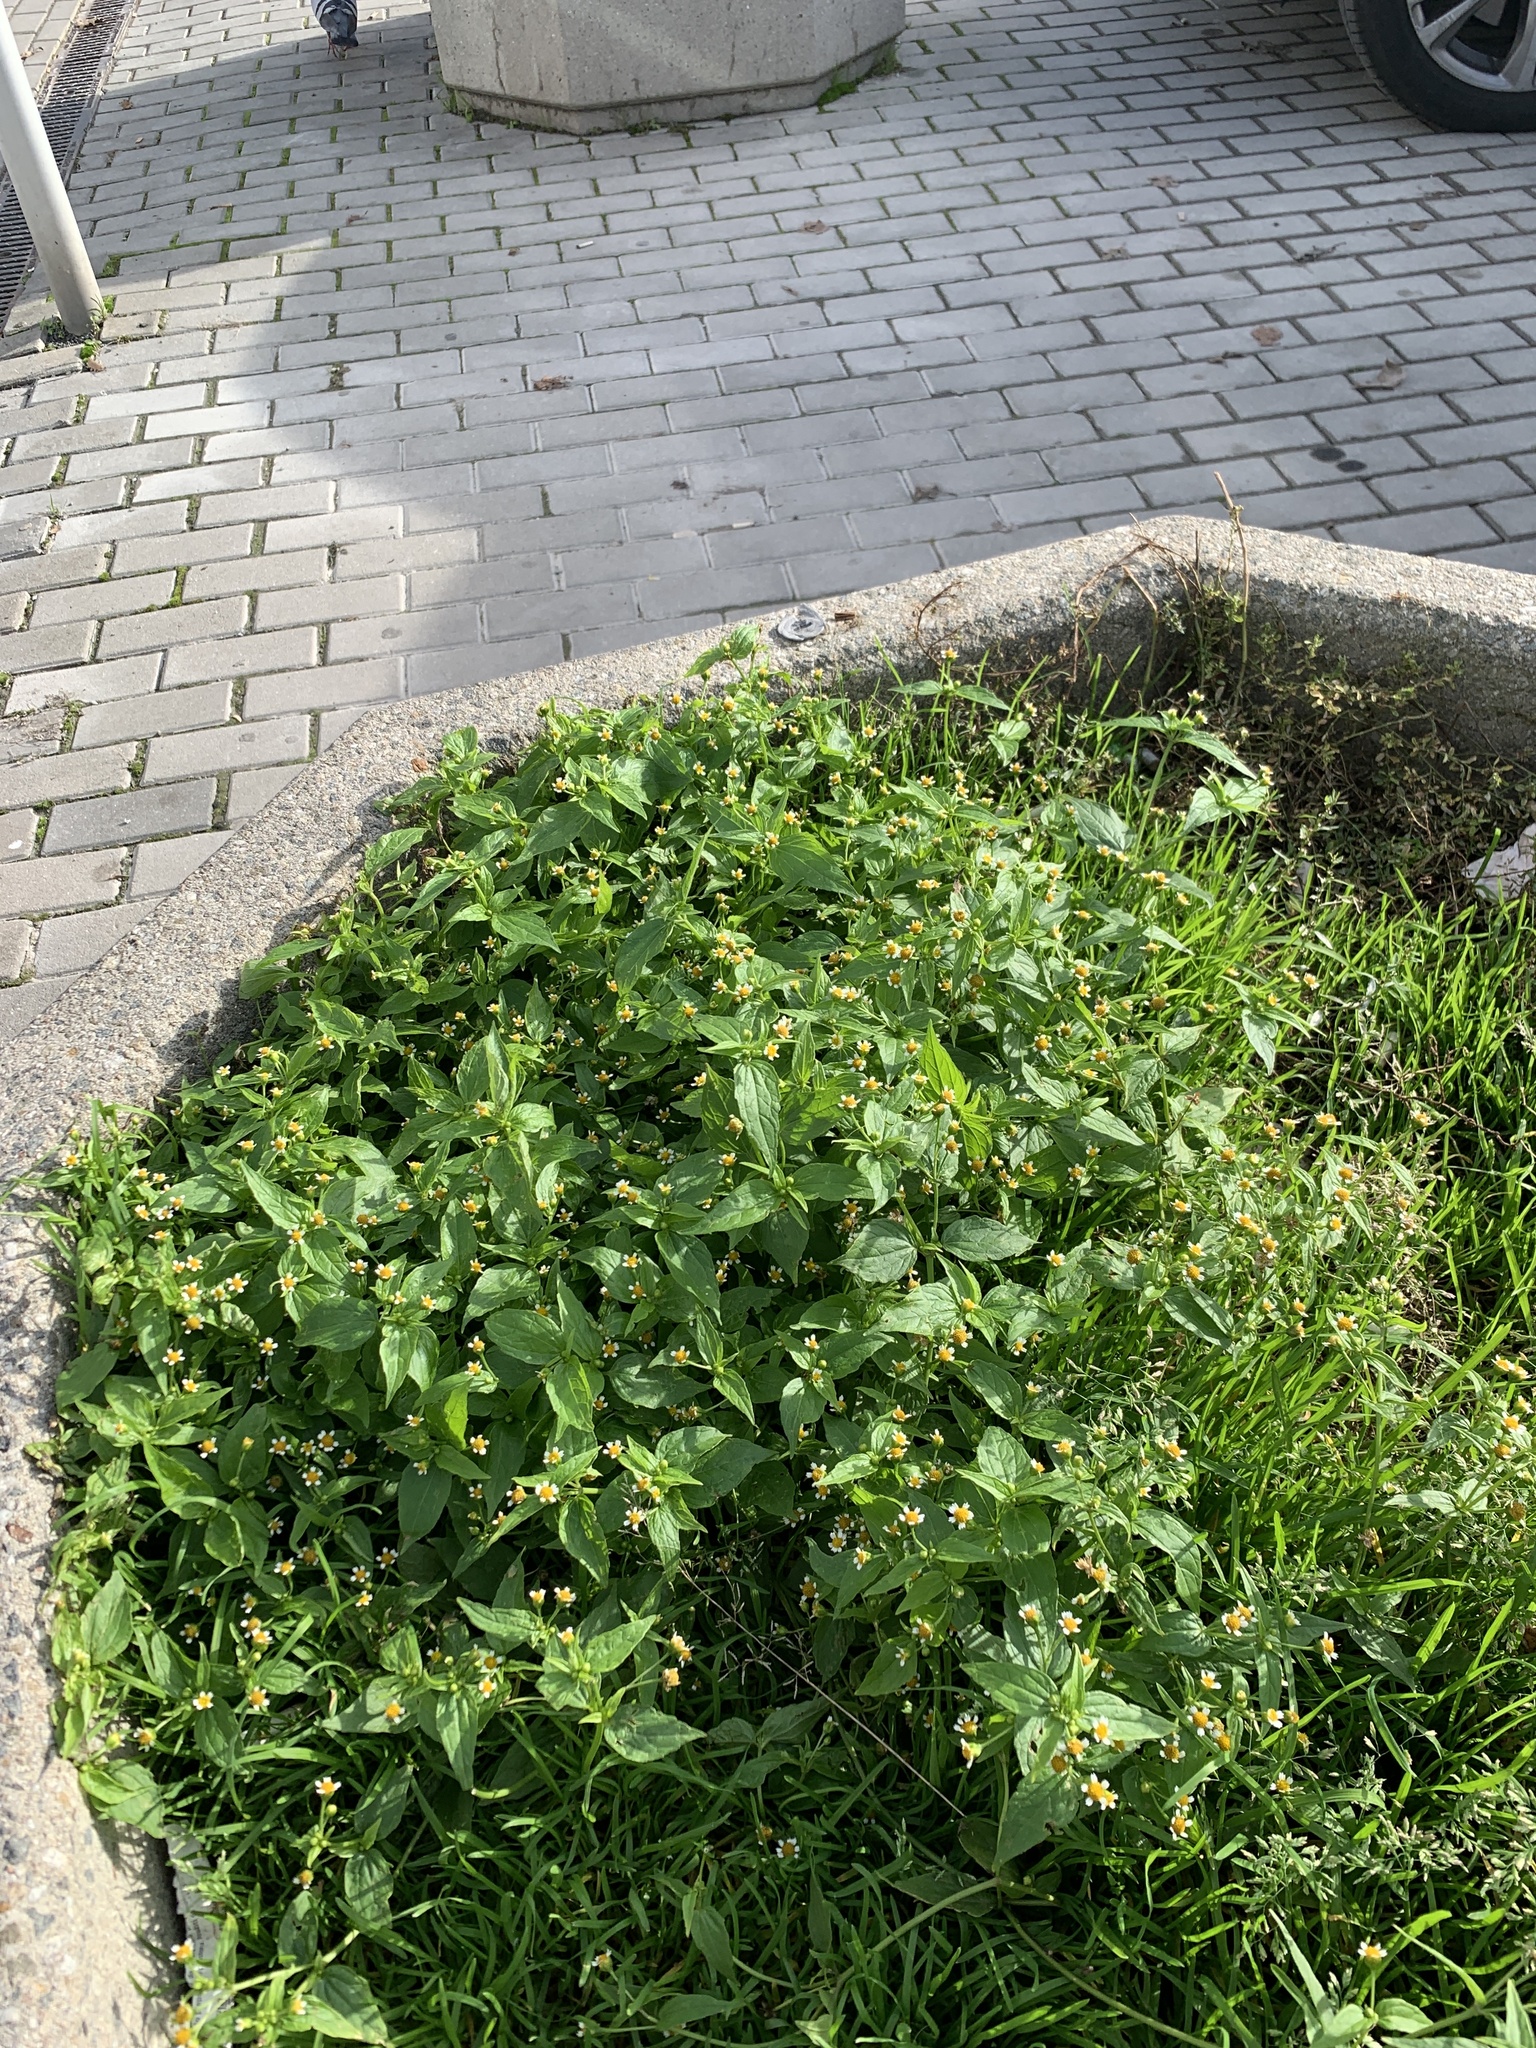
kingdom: Plantae
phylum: Tracheophyta
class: Magnoliopsida
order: Asterales
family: Asteraceae
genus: Galinsoga
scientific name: Galinsoga parviflora
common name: Gallant soldier
